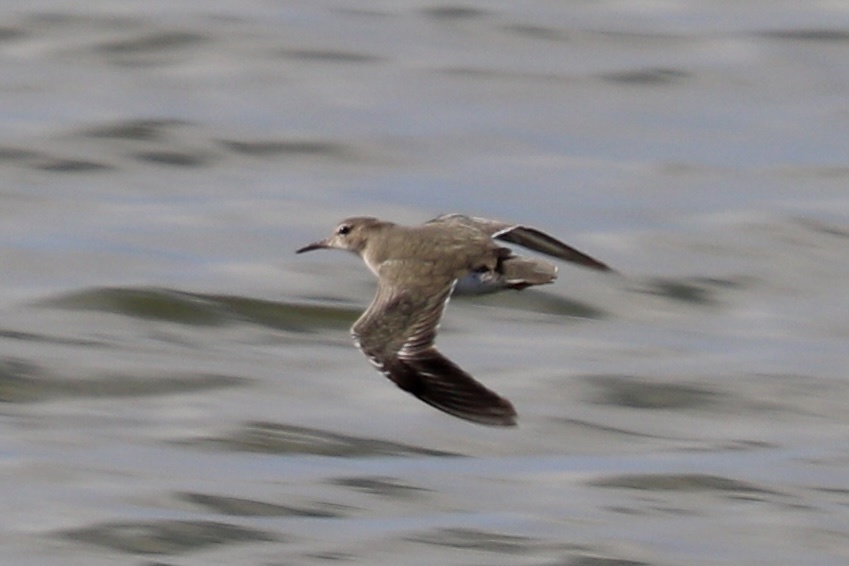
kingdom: Animalia
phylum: Chordata
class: Aves
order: Charadriiformes
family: Scolopacidae
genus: Actitis
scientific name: Actitis macularius
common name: Spotted sandpiper
